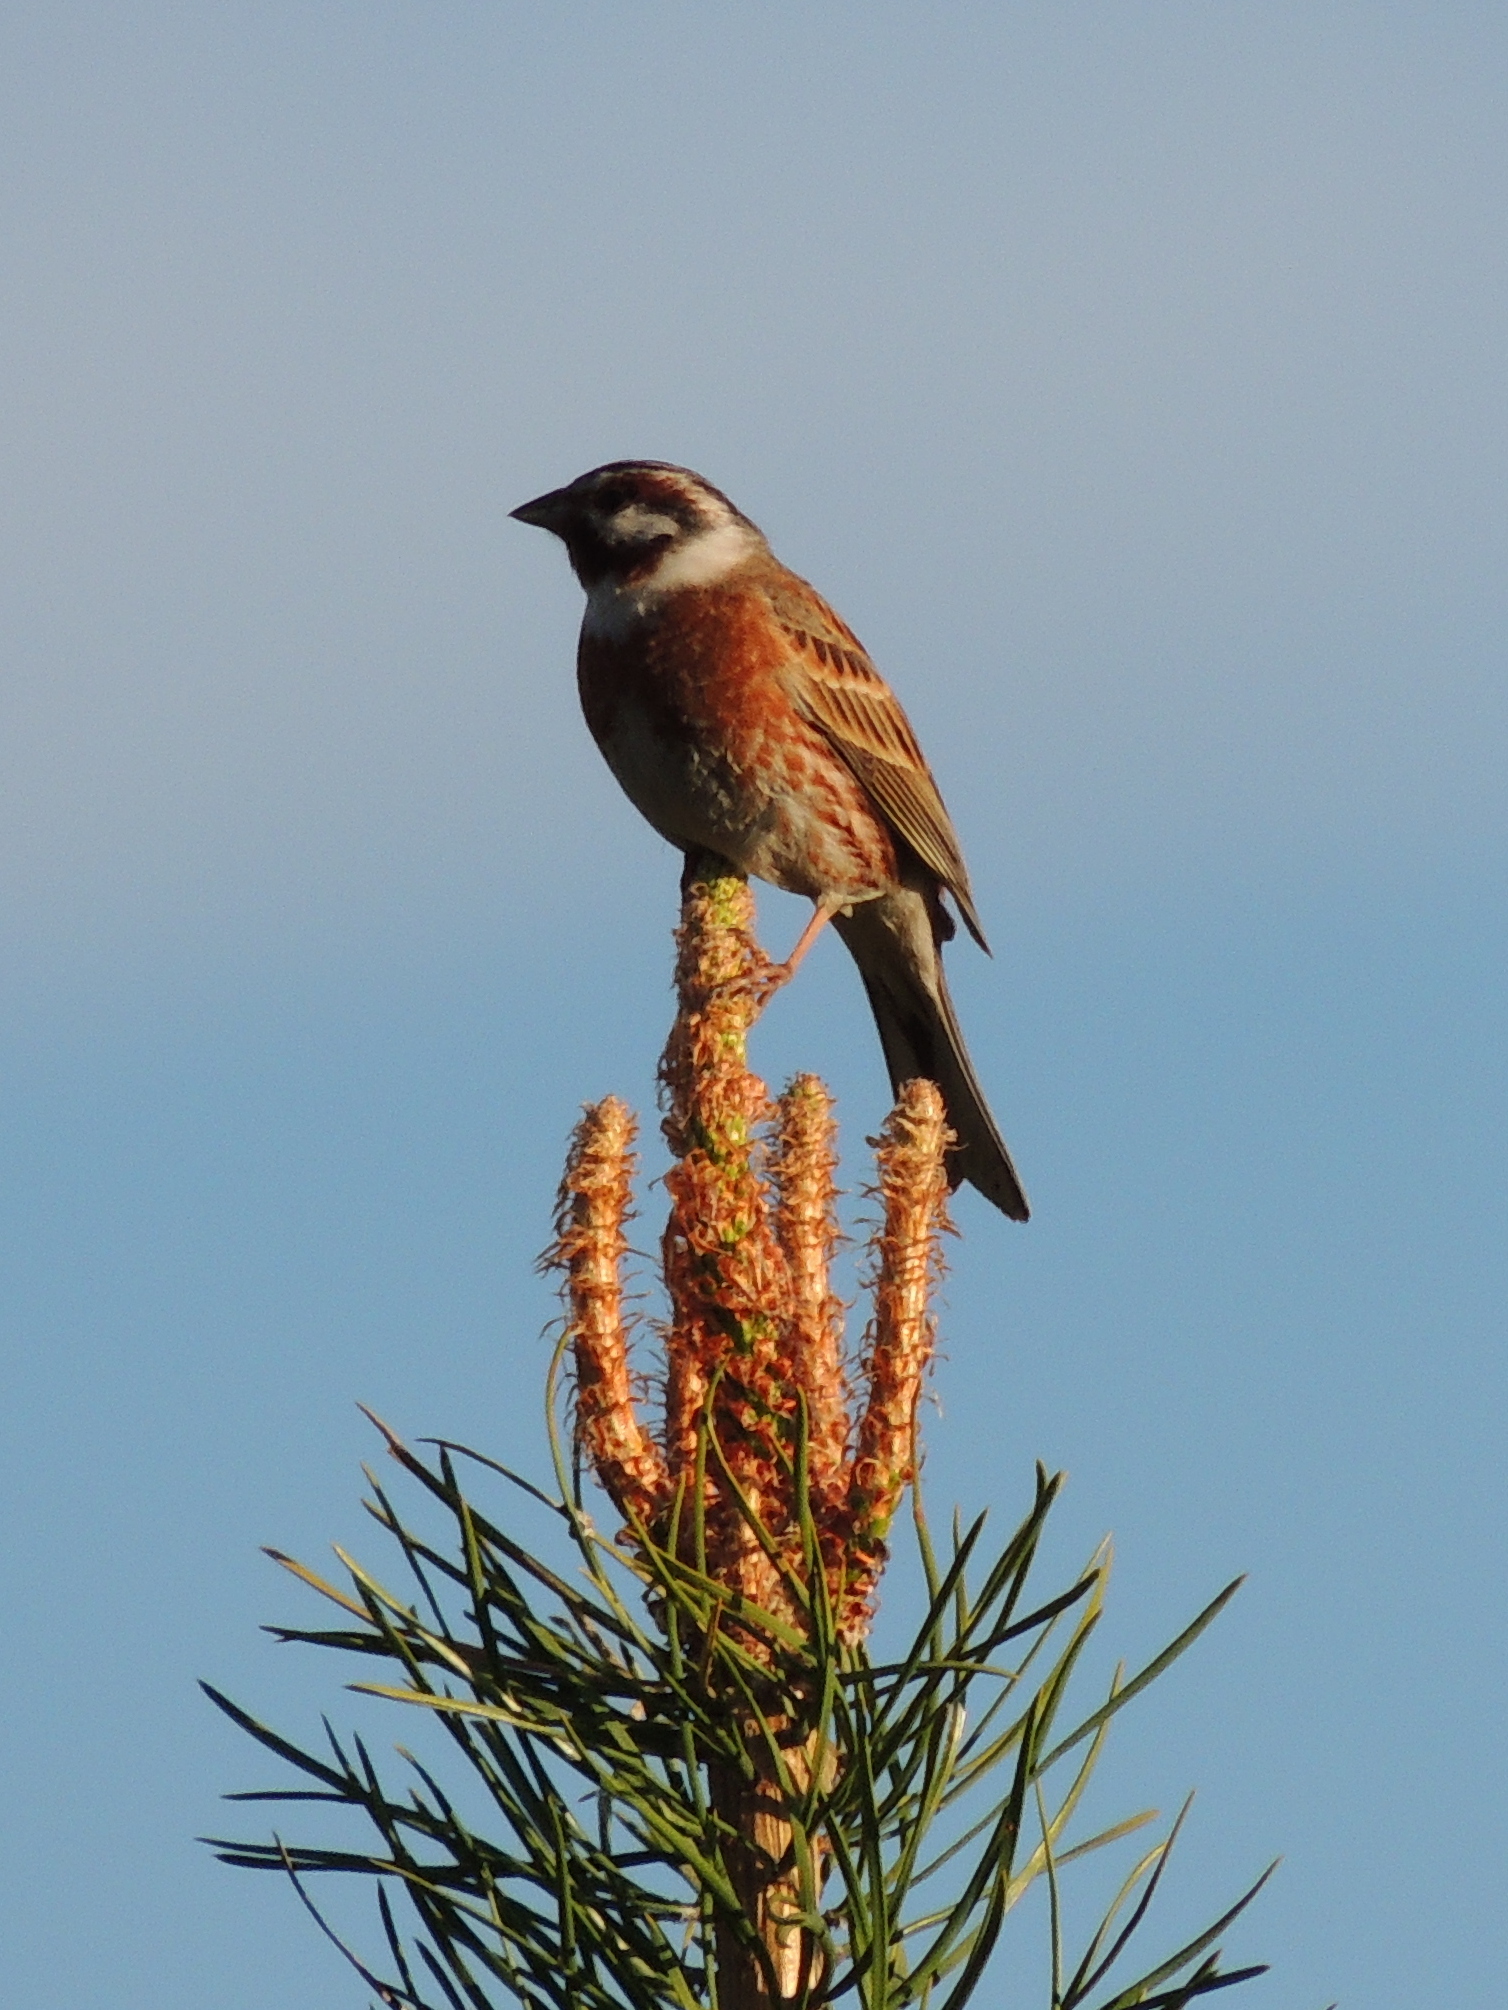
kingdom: Animalia
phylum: Chordata
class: Aves
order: Passeriformes
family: Emberizidae
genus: Emberiza
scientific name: Emberiza leucocephalos
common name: Pine bunting
